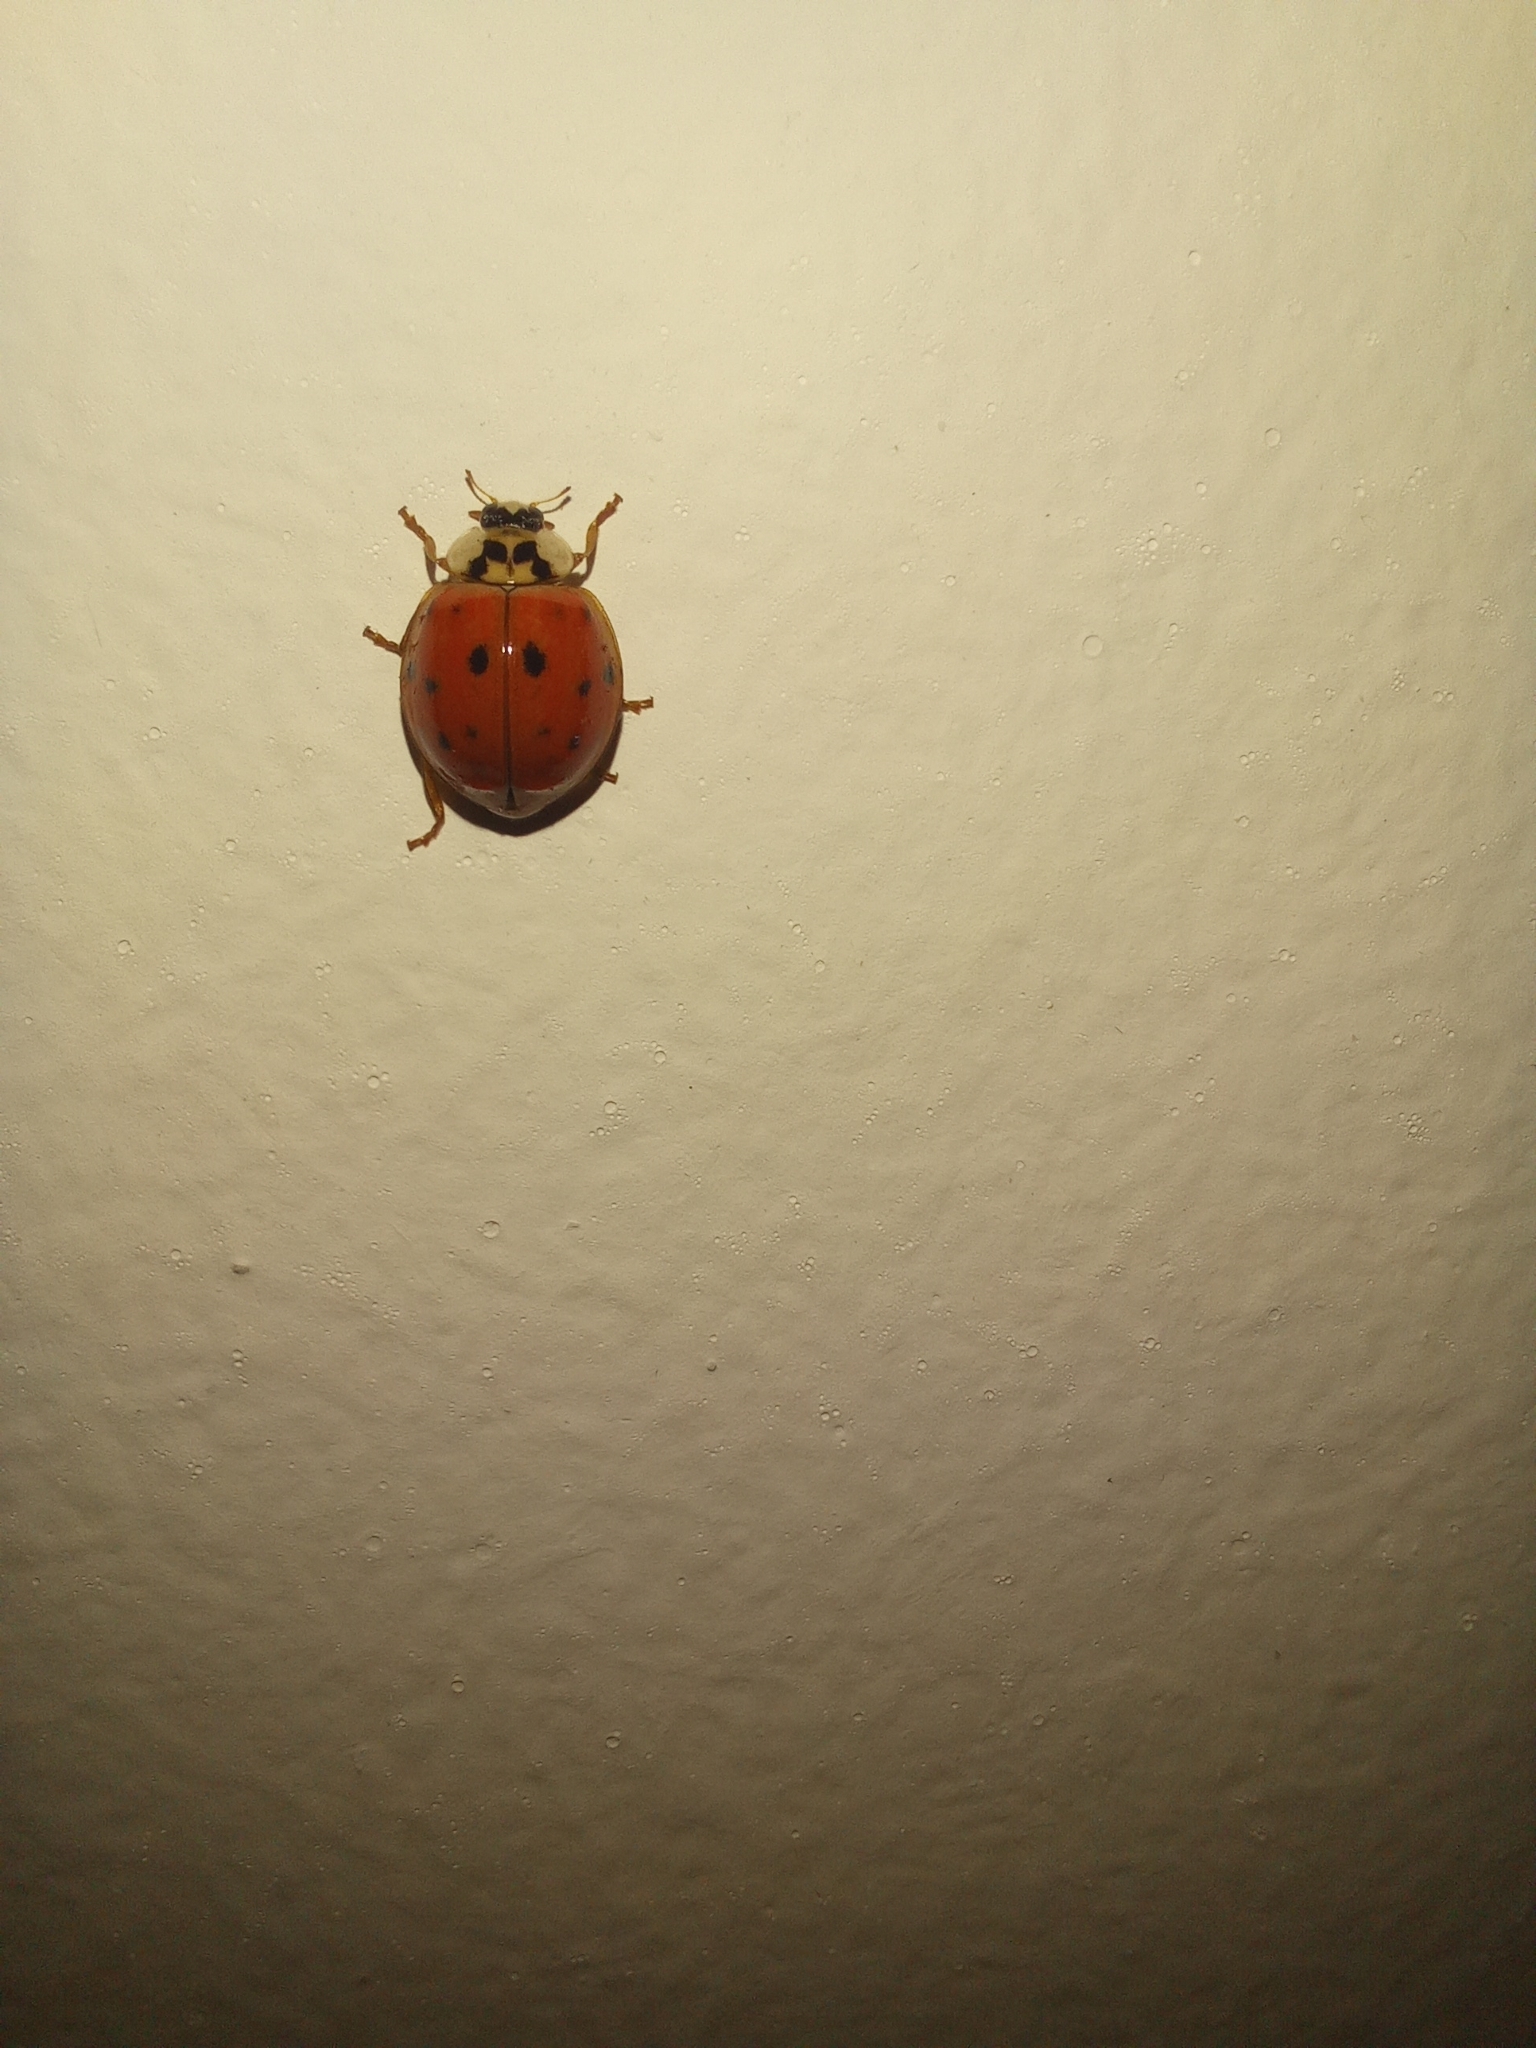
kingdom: Animalia
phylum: Arthropoda
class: Insecta
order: Coleoptera
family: Coccinellidae
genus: Harmonia
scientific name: Harmonia axyridis
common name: Harlequin ladybird
